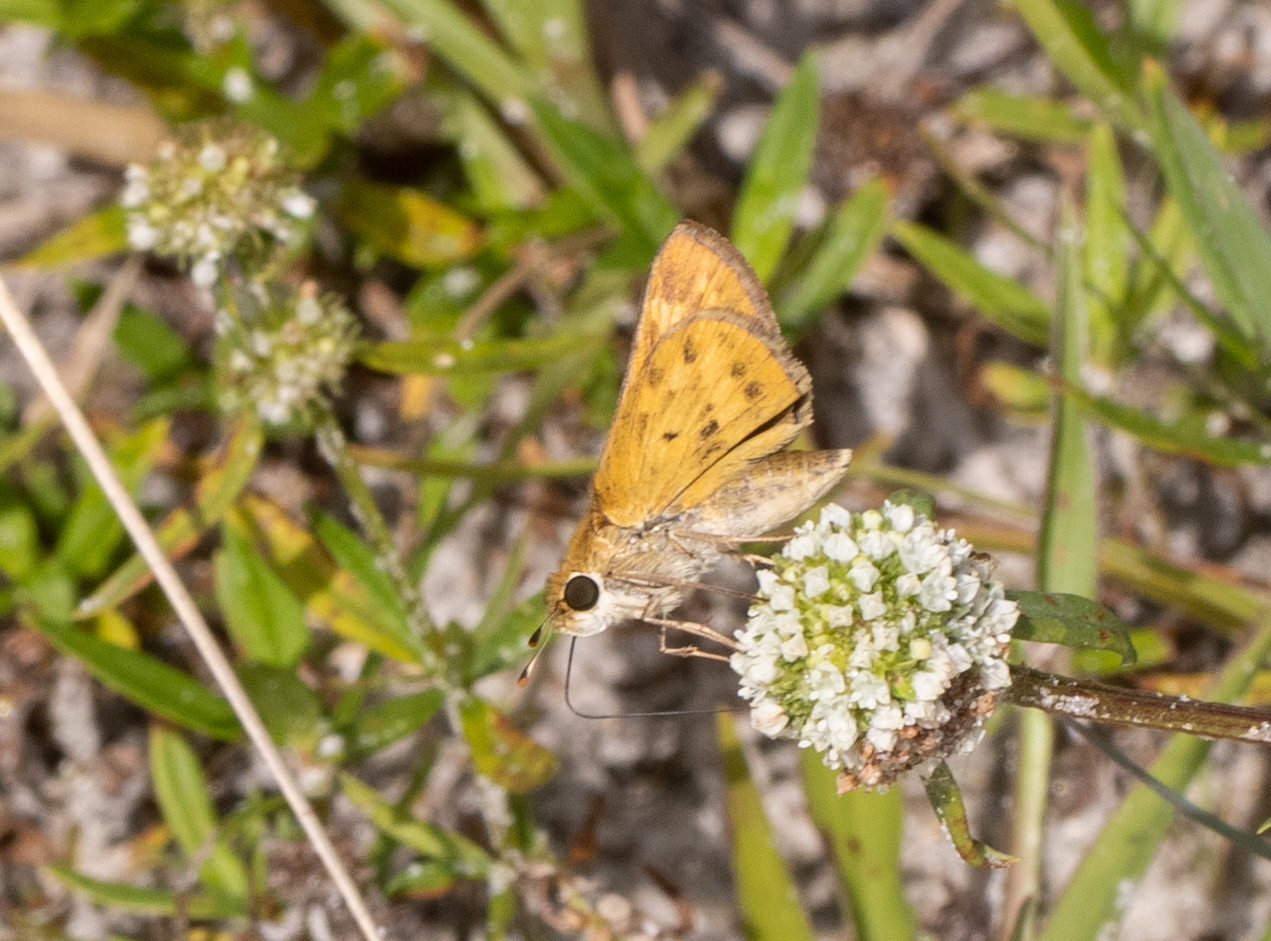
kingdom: Animalia
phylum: Arthropoda
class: Insecta
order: Lepidoptera
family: Hesperiidae
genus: Hylephila
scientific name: Hylephila phyleus
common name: Fiery skipper
